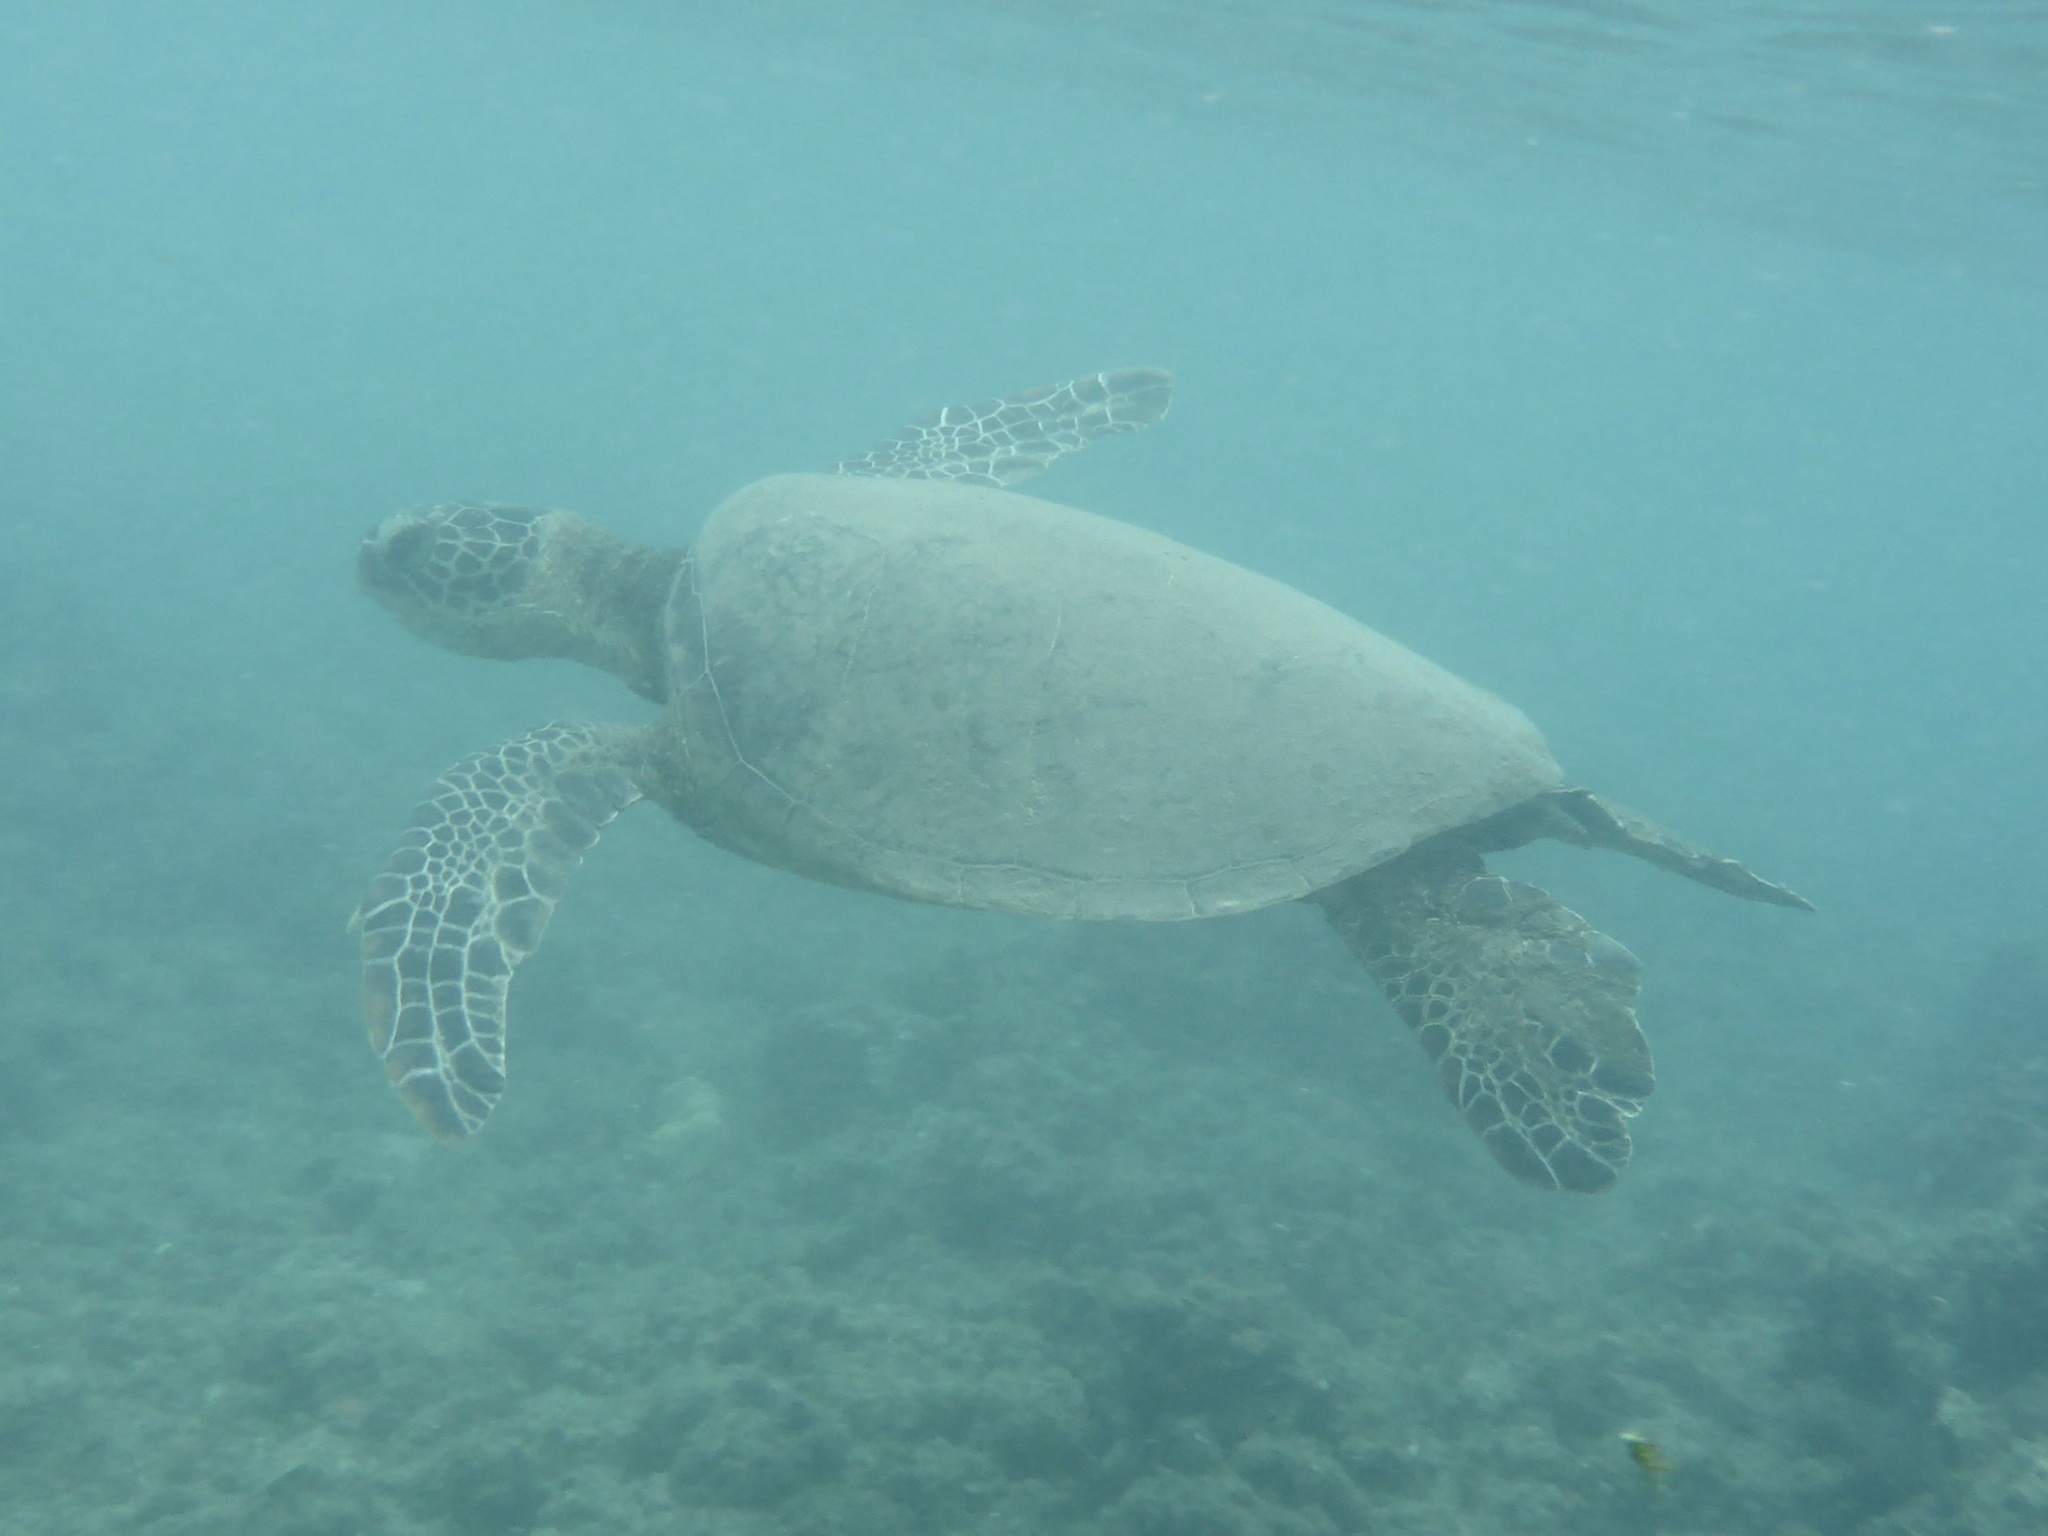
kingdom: Animalia
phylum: Chordata
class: Testudines
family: Cheloniidae
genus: Chelonia
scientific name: Chelonia mydas
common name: Green turtle
